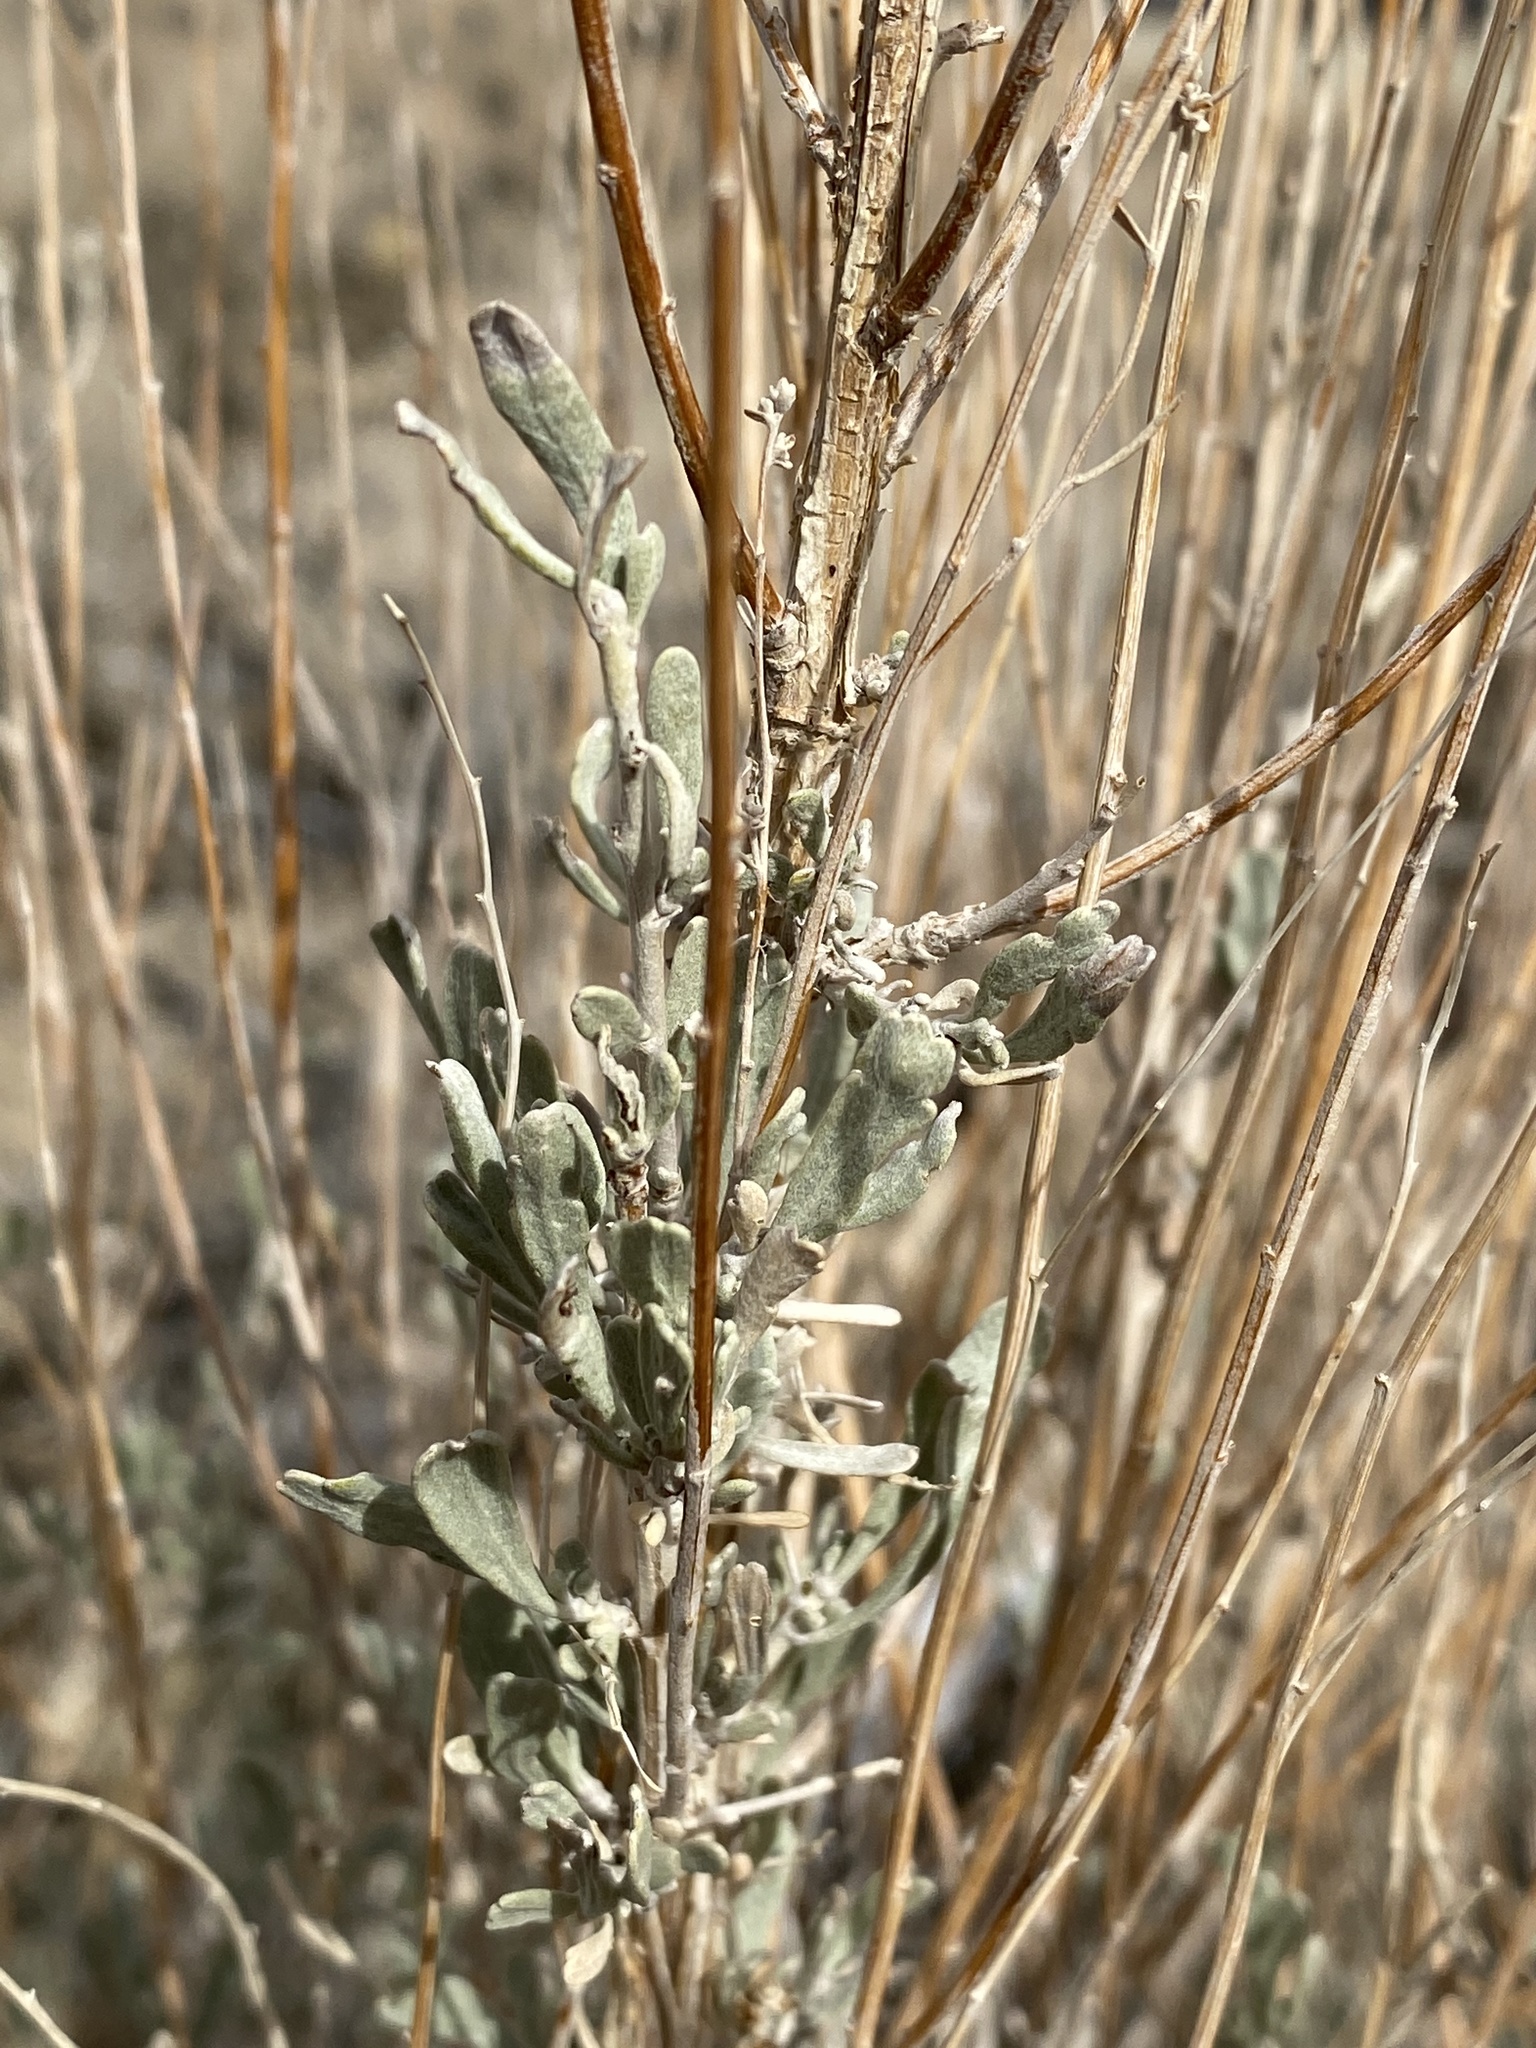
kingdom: Plantae
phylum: Tracheophyta
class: Magnoliopsida
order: Asterales
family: Asteraceae
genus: Artemisia
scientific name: Artemisia tridentata
